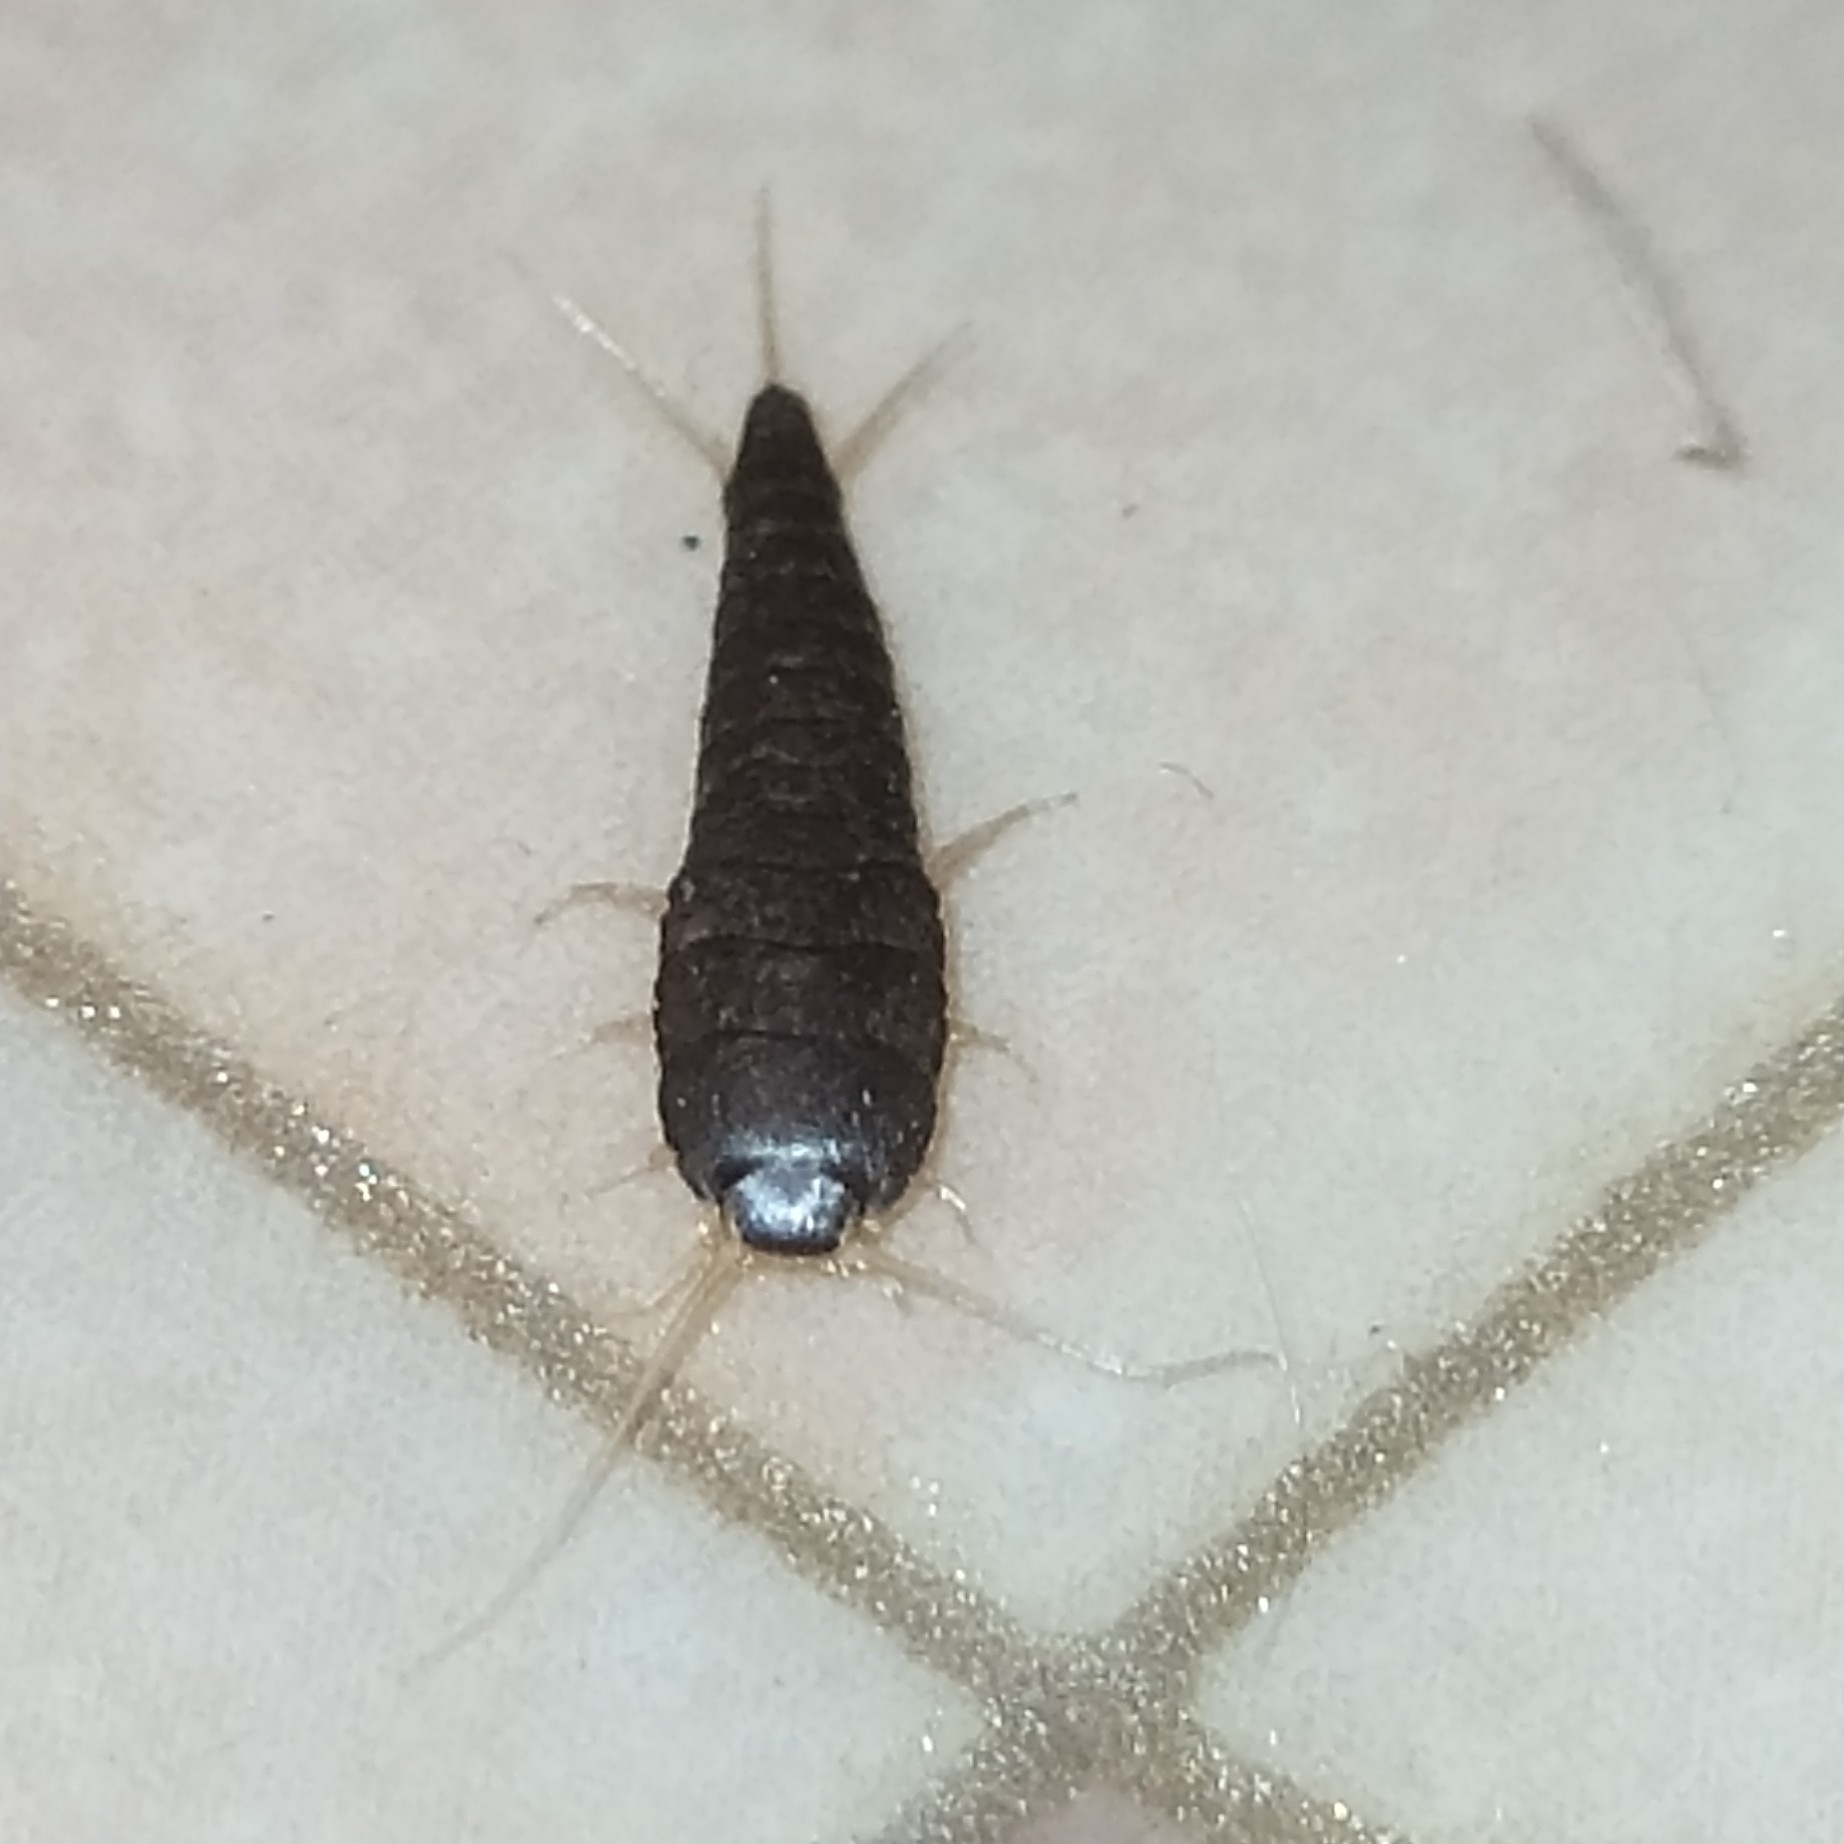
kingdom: Animalia
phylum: Arthropoda
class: Insecta
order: Zygentoma
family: Lepismatidae
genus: Lepisma
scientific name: Lepisma saccharinum
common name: Silverfish
